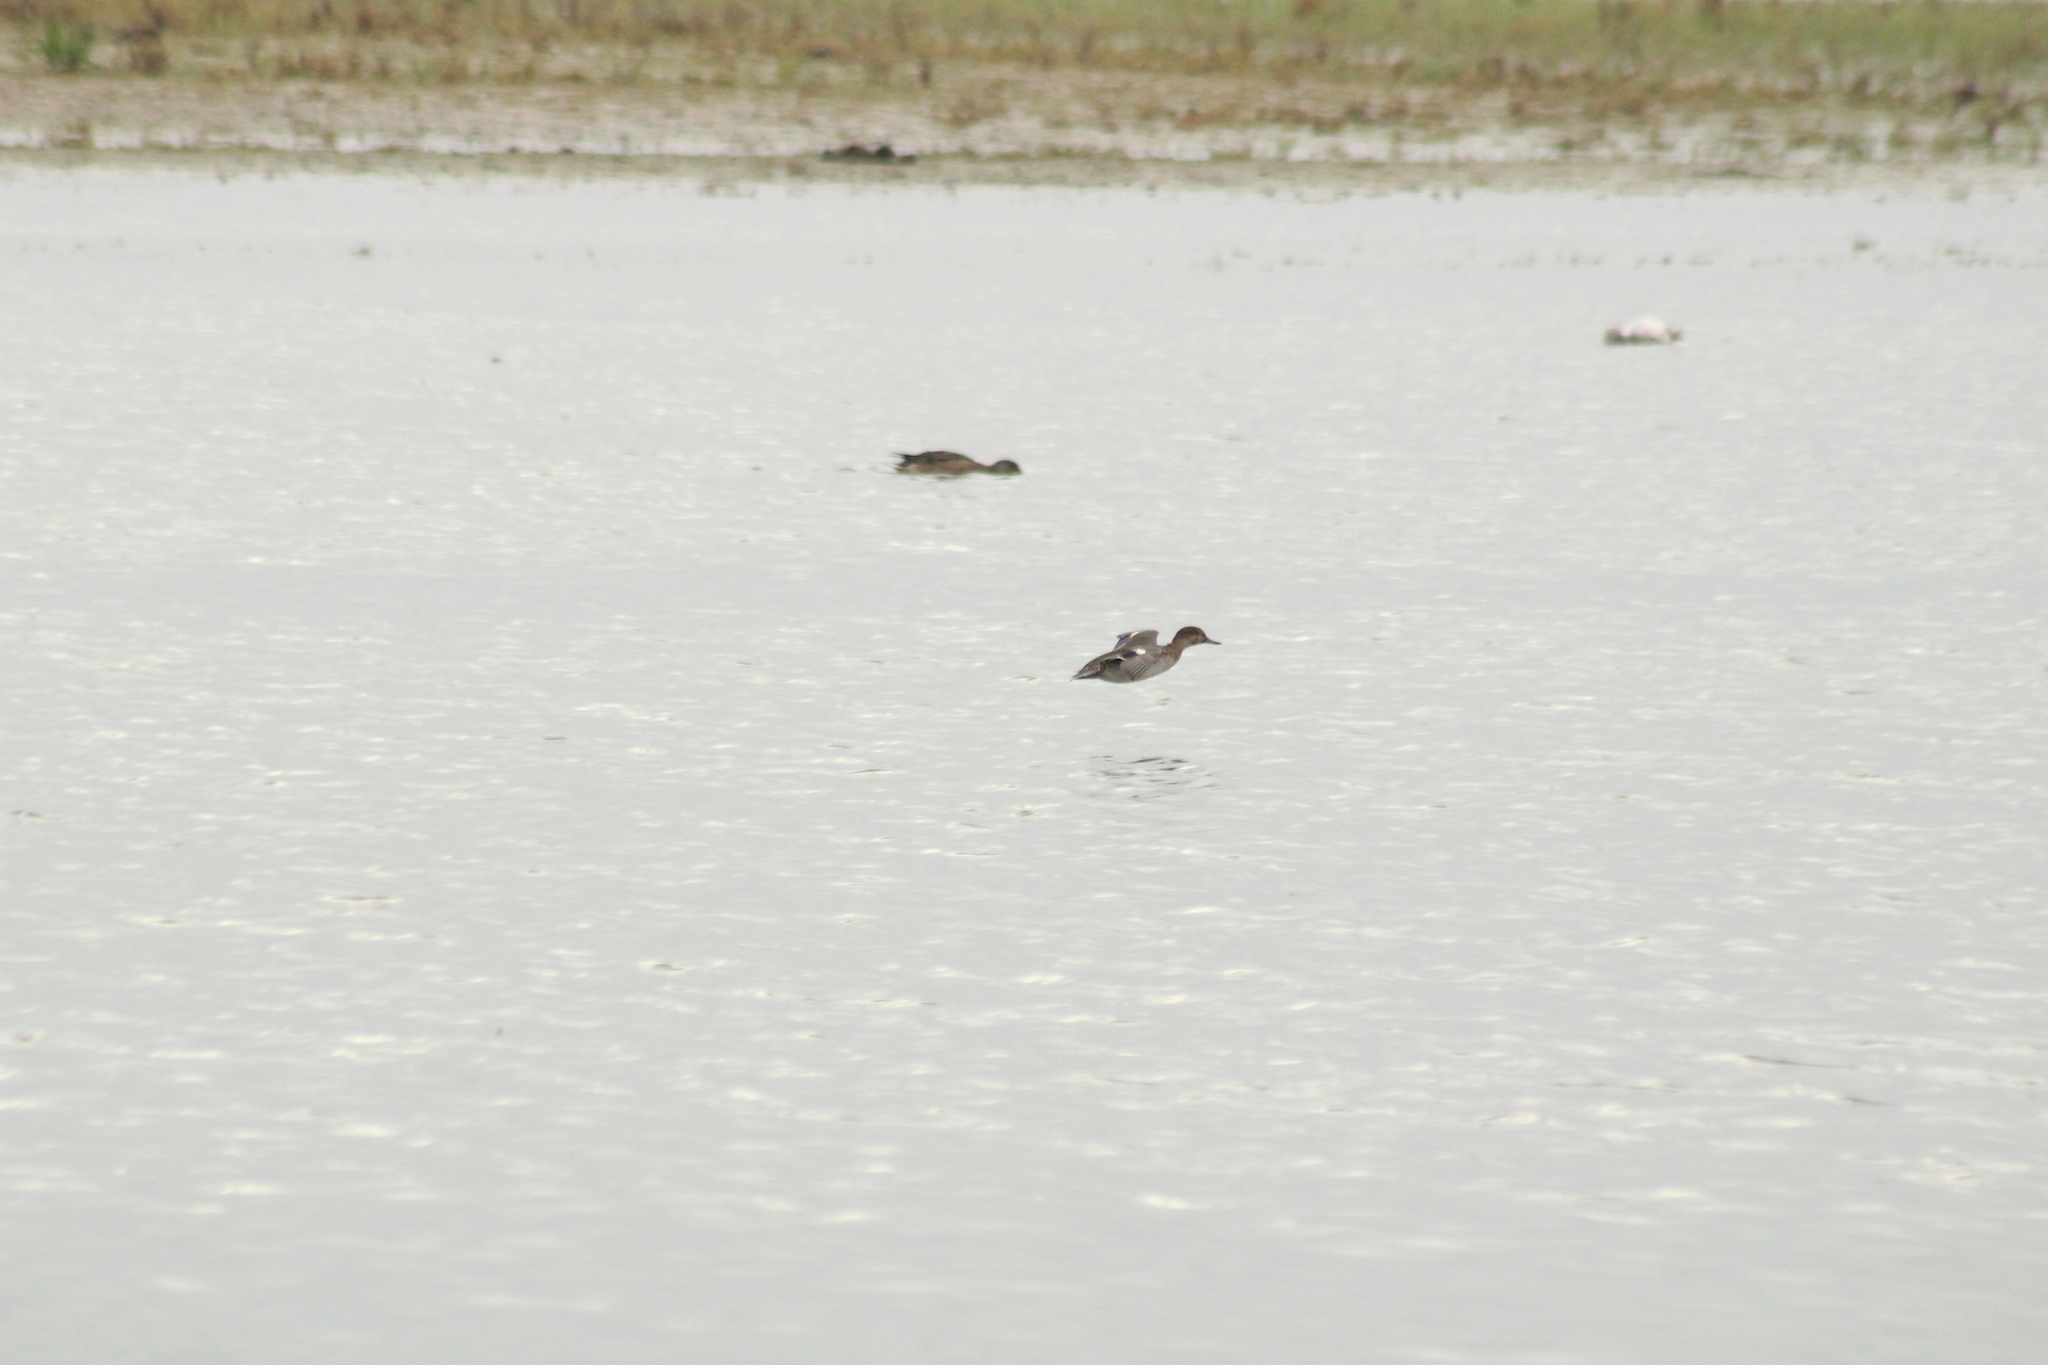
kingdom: Animalia
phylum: Chordata
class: Aves
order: Anseriformes
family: Anatidae
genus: Anas
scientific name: Anas crecca
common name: Eurasian teal
